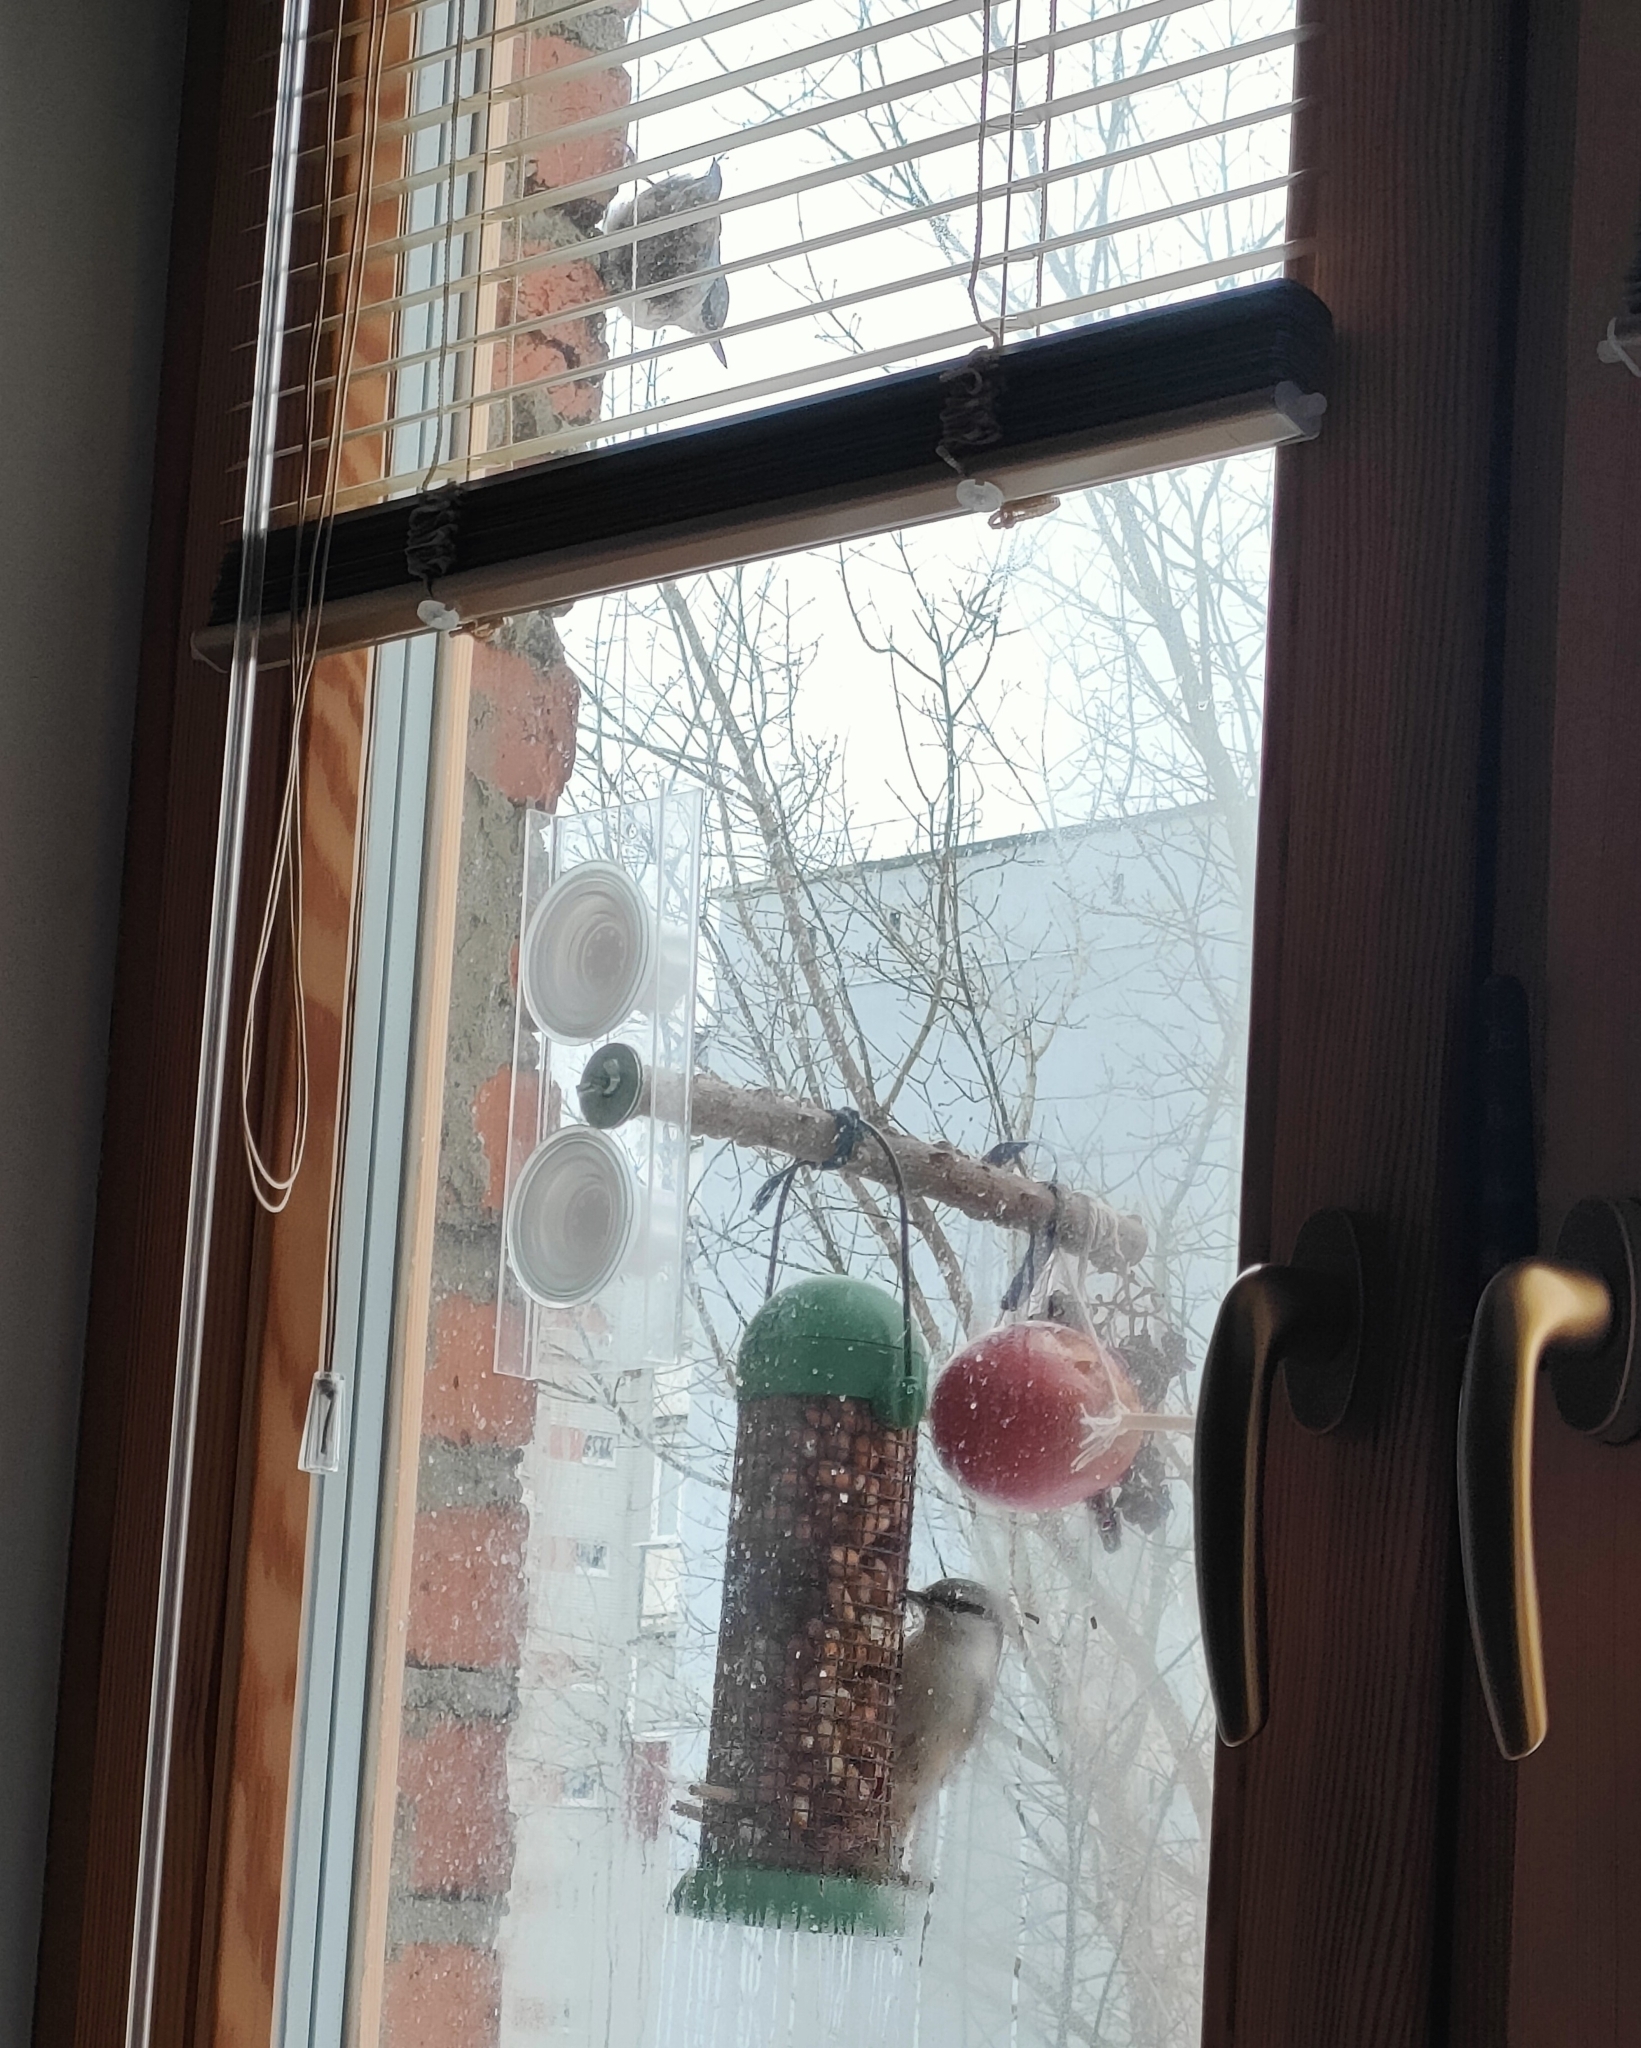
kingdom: Animalia
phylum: Chordata
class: Aves
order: Passeriformes
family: Sittidae
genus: Sitta
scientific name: Sitta europaea
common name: Eurasian nuthatch
